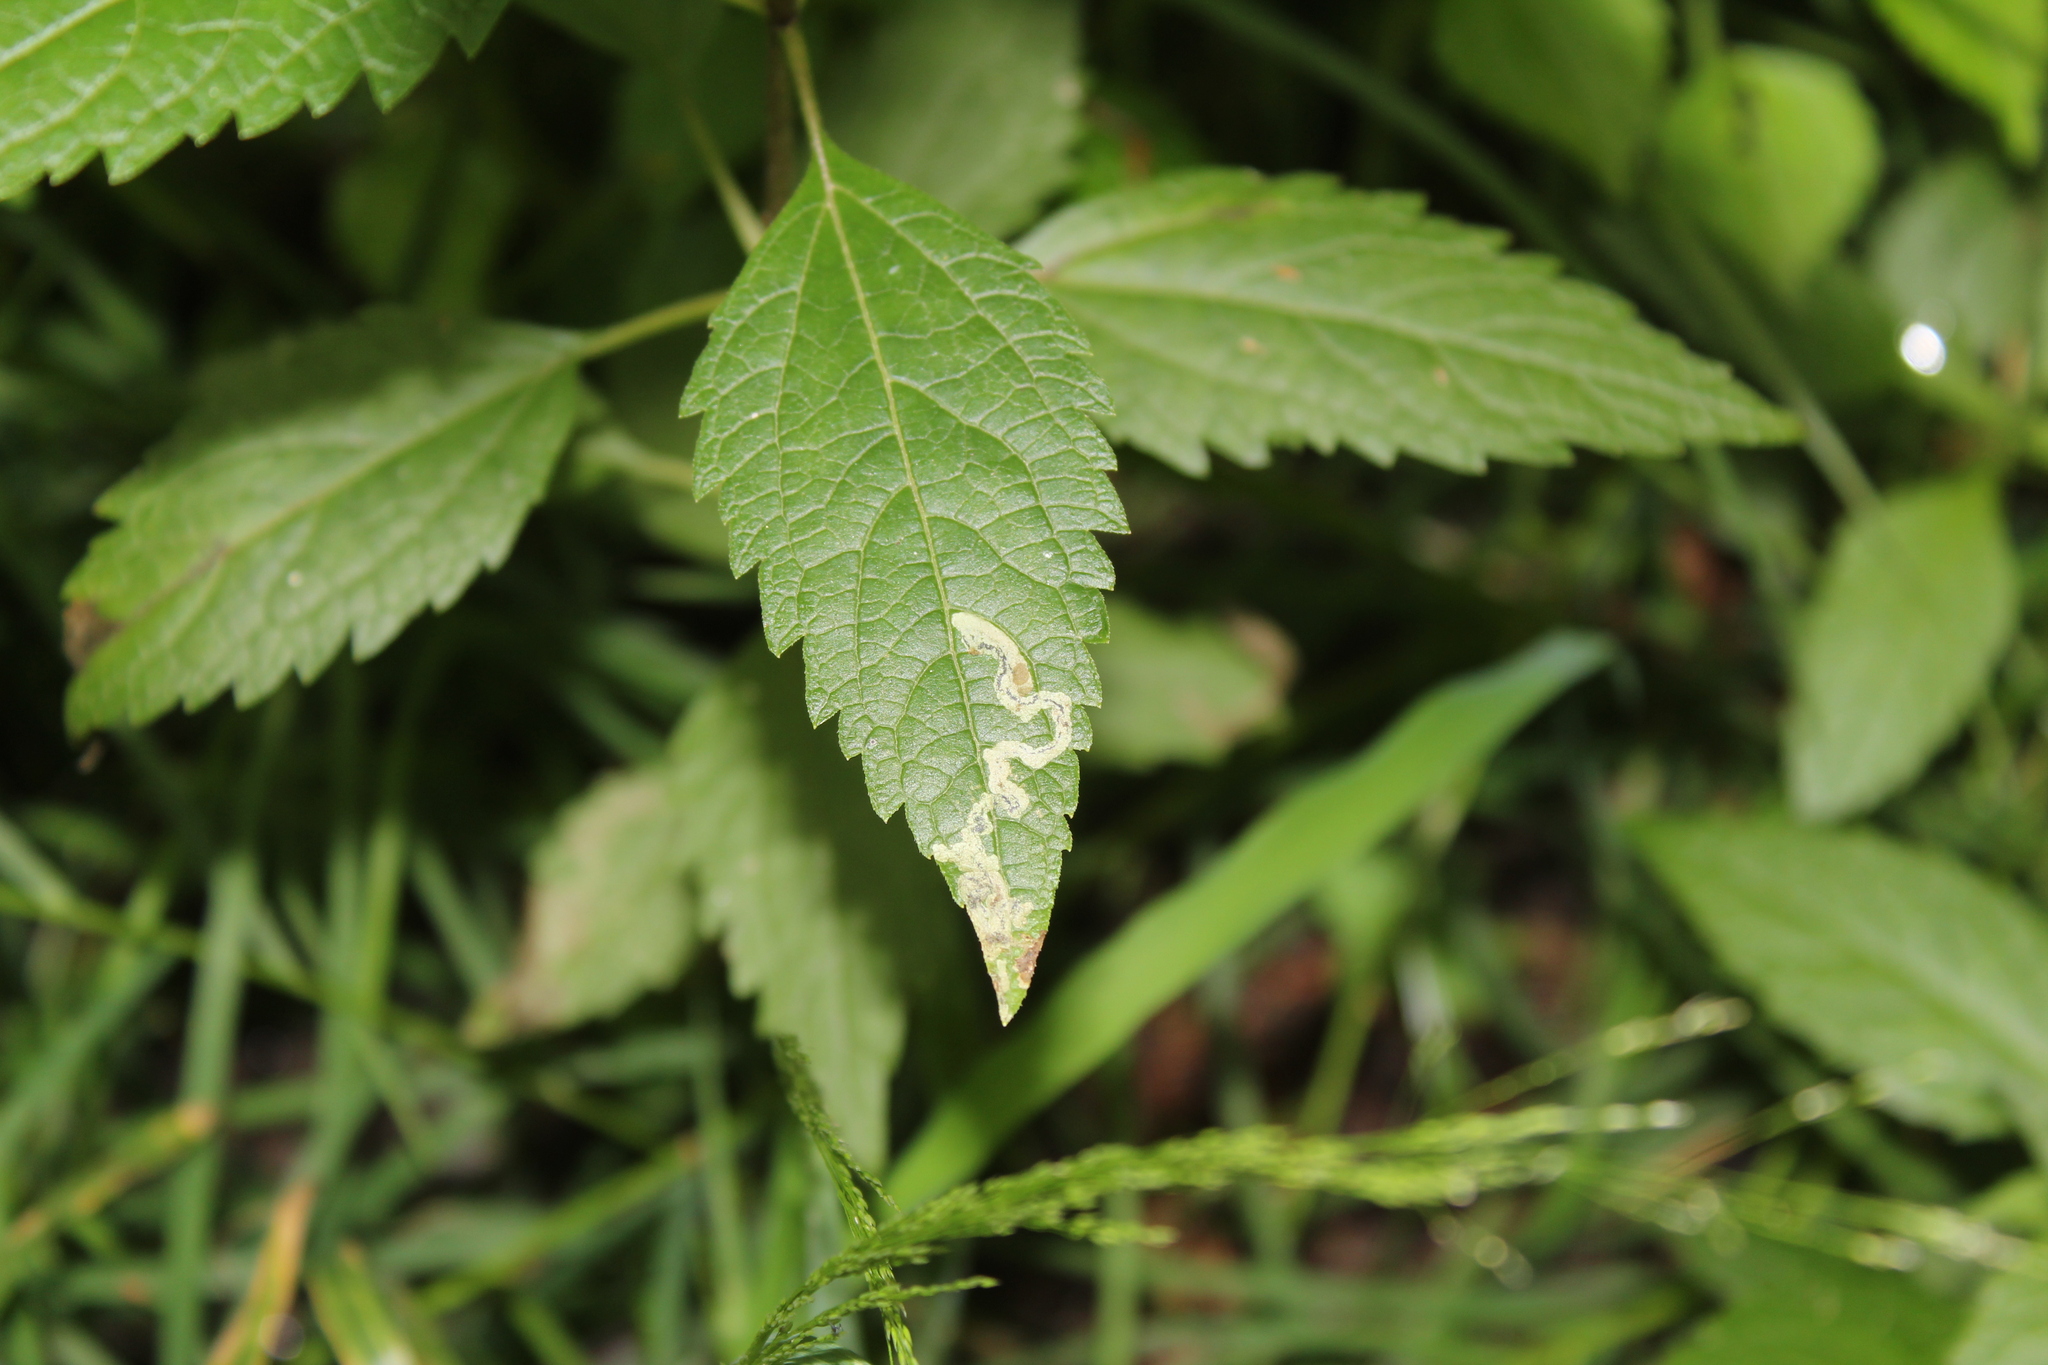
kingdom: Animalia
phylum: Arthropoda
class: Insecta
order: Diptera
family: Agromyzidae
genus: Liriomyza
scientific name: Liriomyza cracentis
